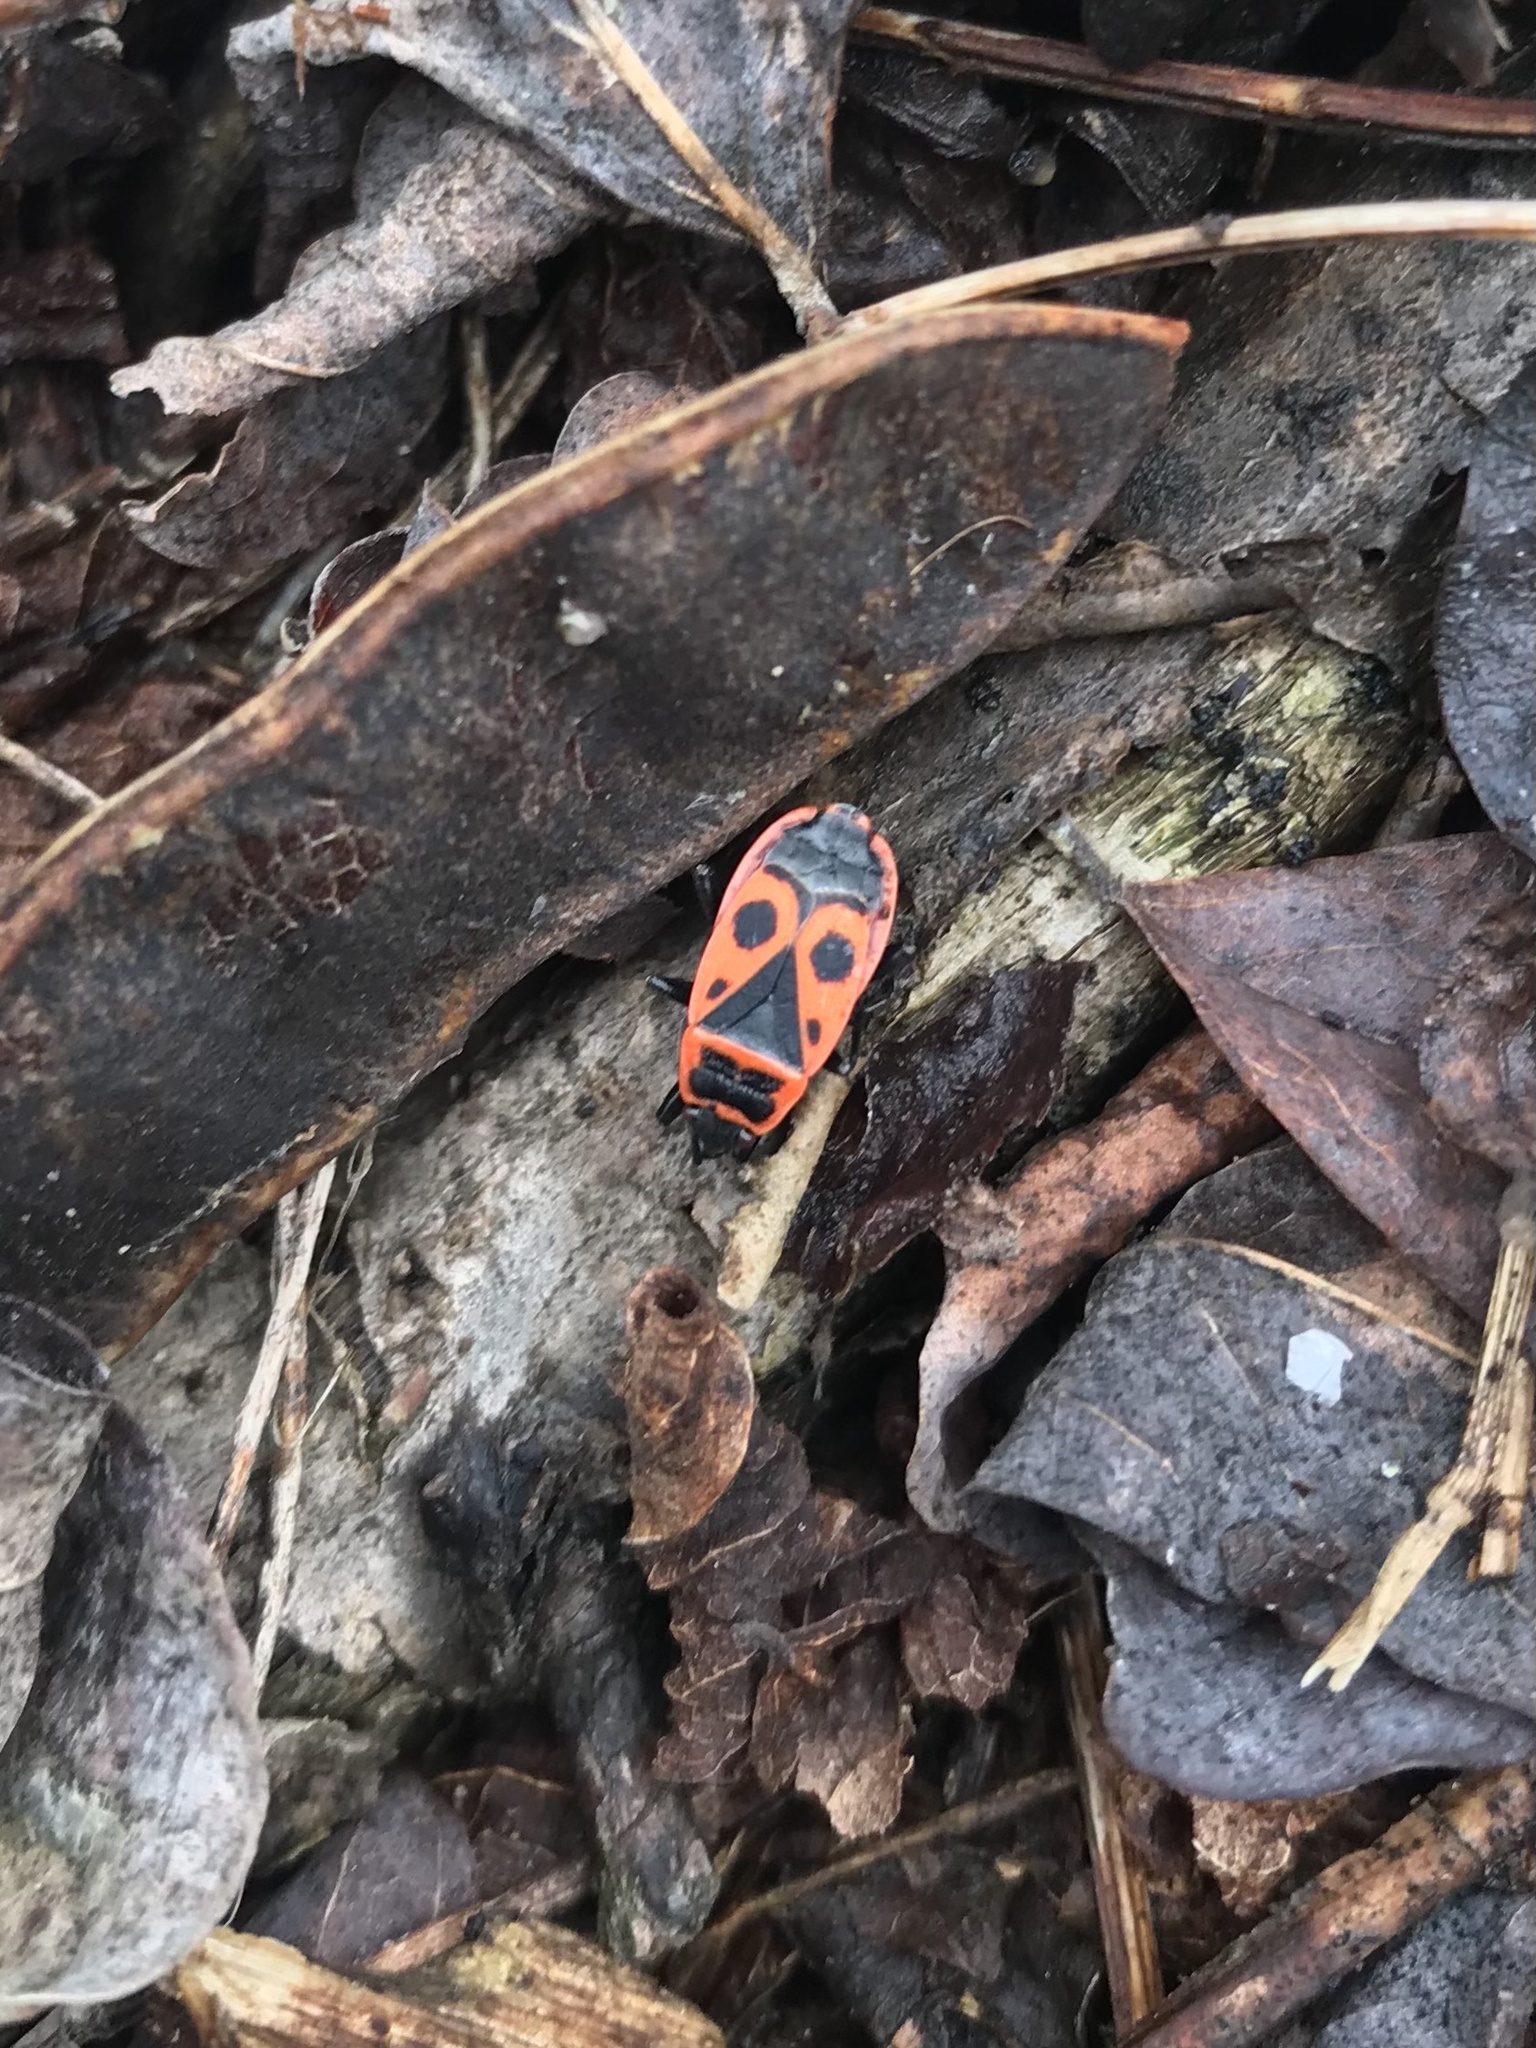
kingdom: Animalia
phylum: Arthropoda
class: Insecta
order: Hemiptera
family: Pyrrhocoridae
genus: Pyrrhocoris
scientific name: Pyrrhocoris apterus
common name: Firebug
